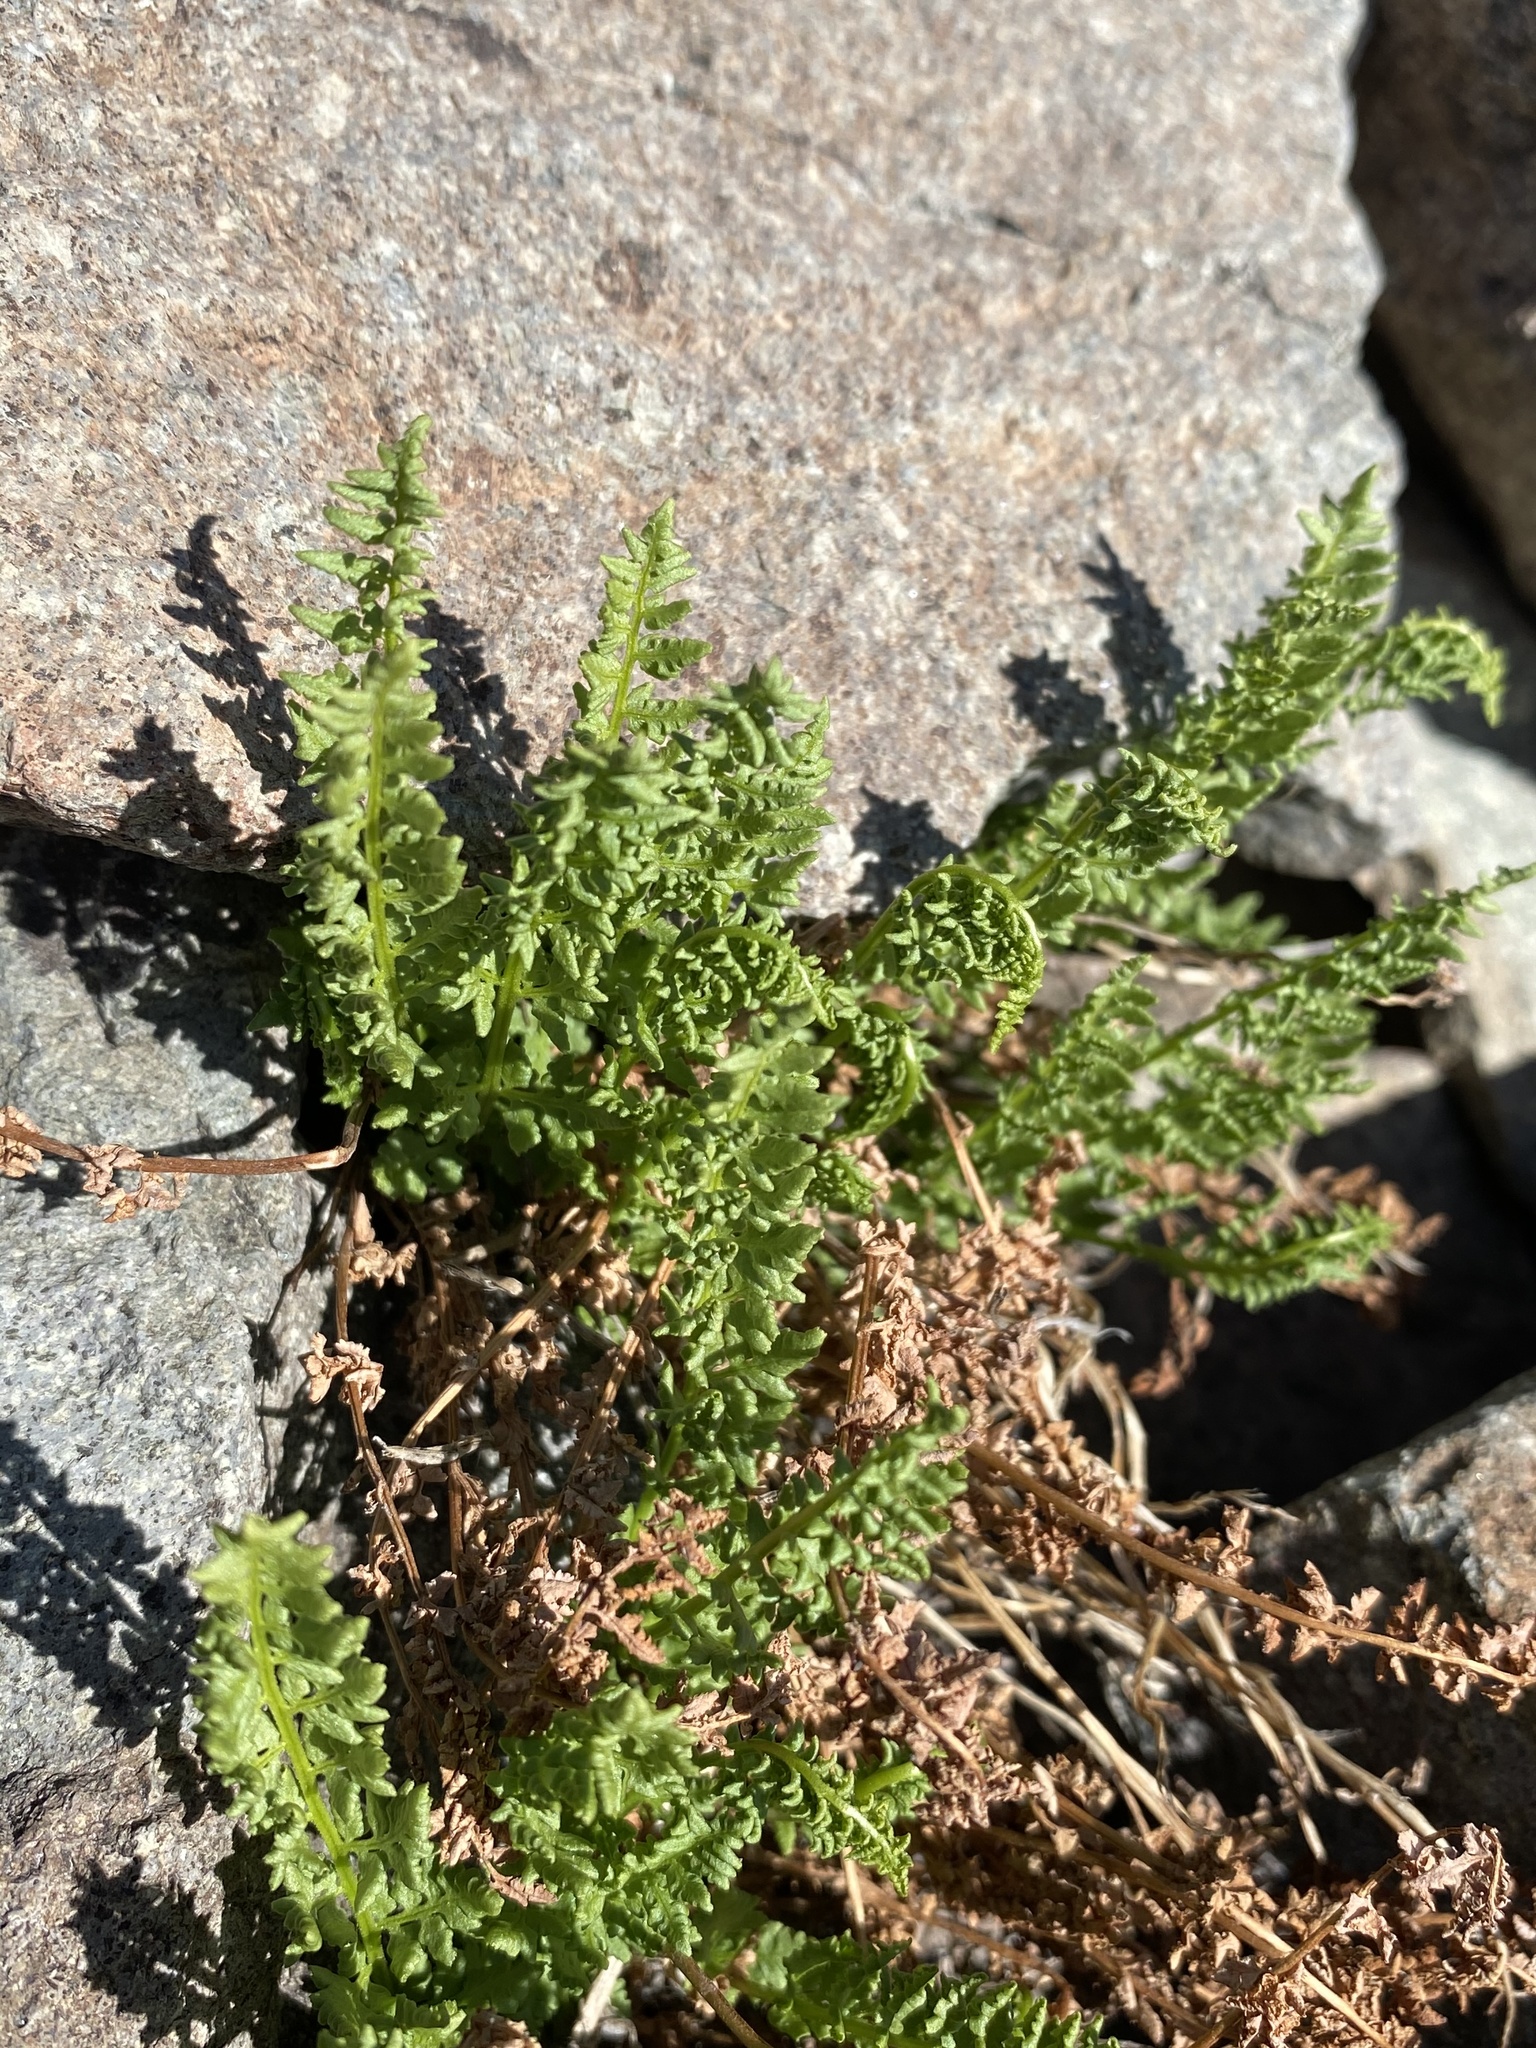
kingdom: Plantae
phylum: Tracheophyta
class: Polypodiopsida
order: Polypodiales
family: Woodsiaceae
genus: Physematium
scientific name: Physematium oreganum
